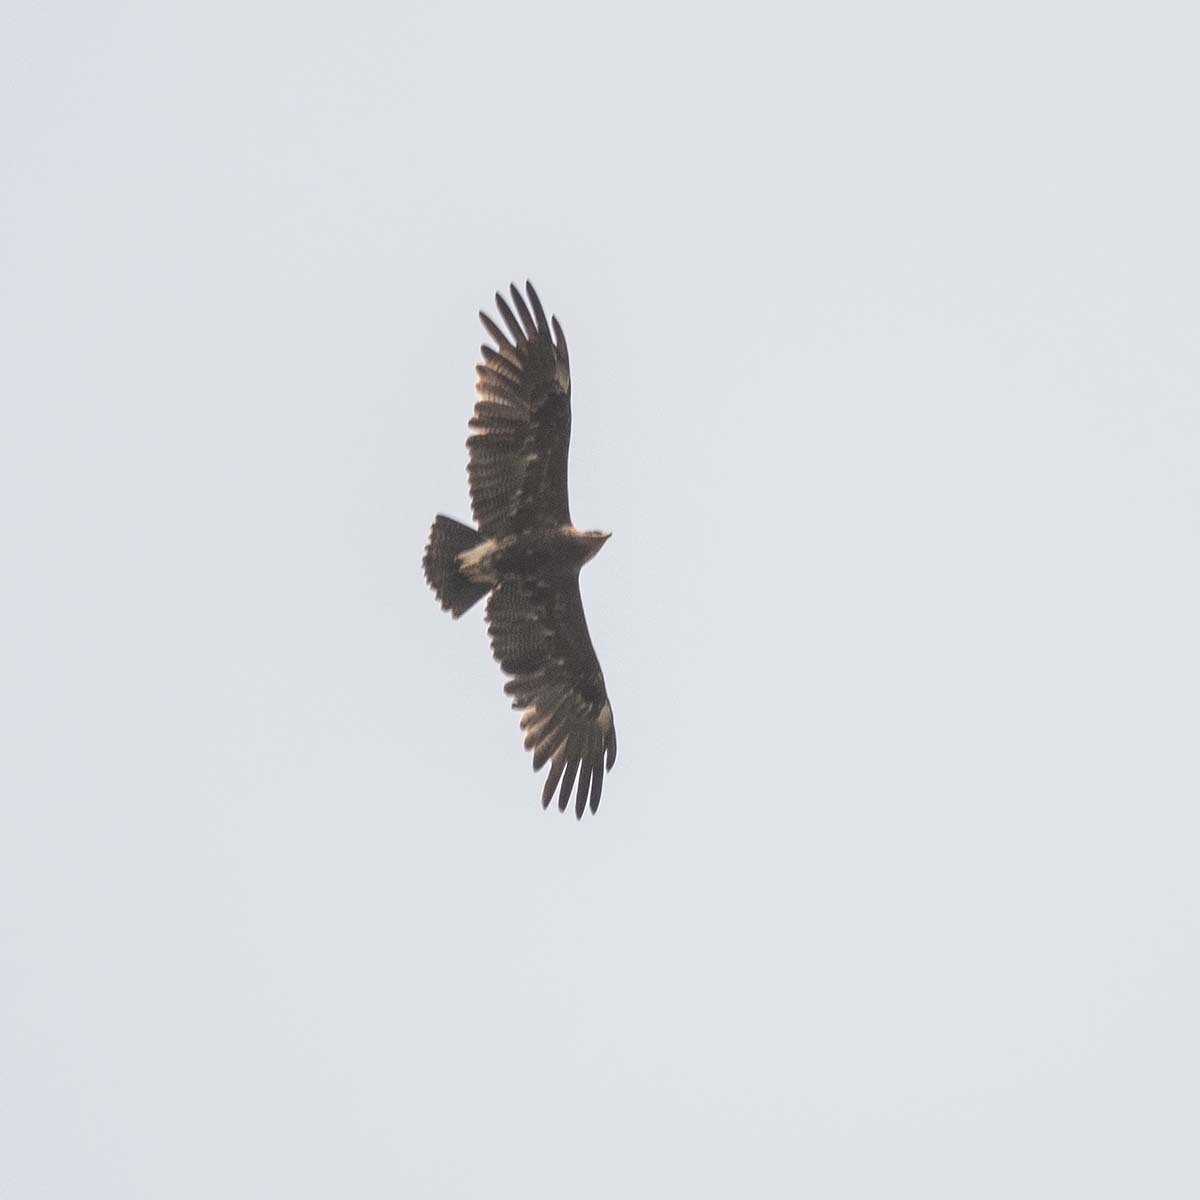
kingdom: Animalia
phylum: Chordata
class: Aves
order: Accipitriformes
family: Accipitridae
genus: Aquila
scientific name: Aquila clanga
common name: Greater spotted eagle
